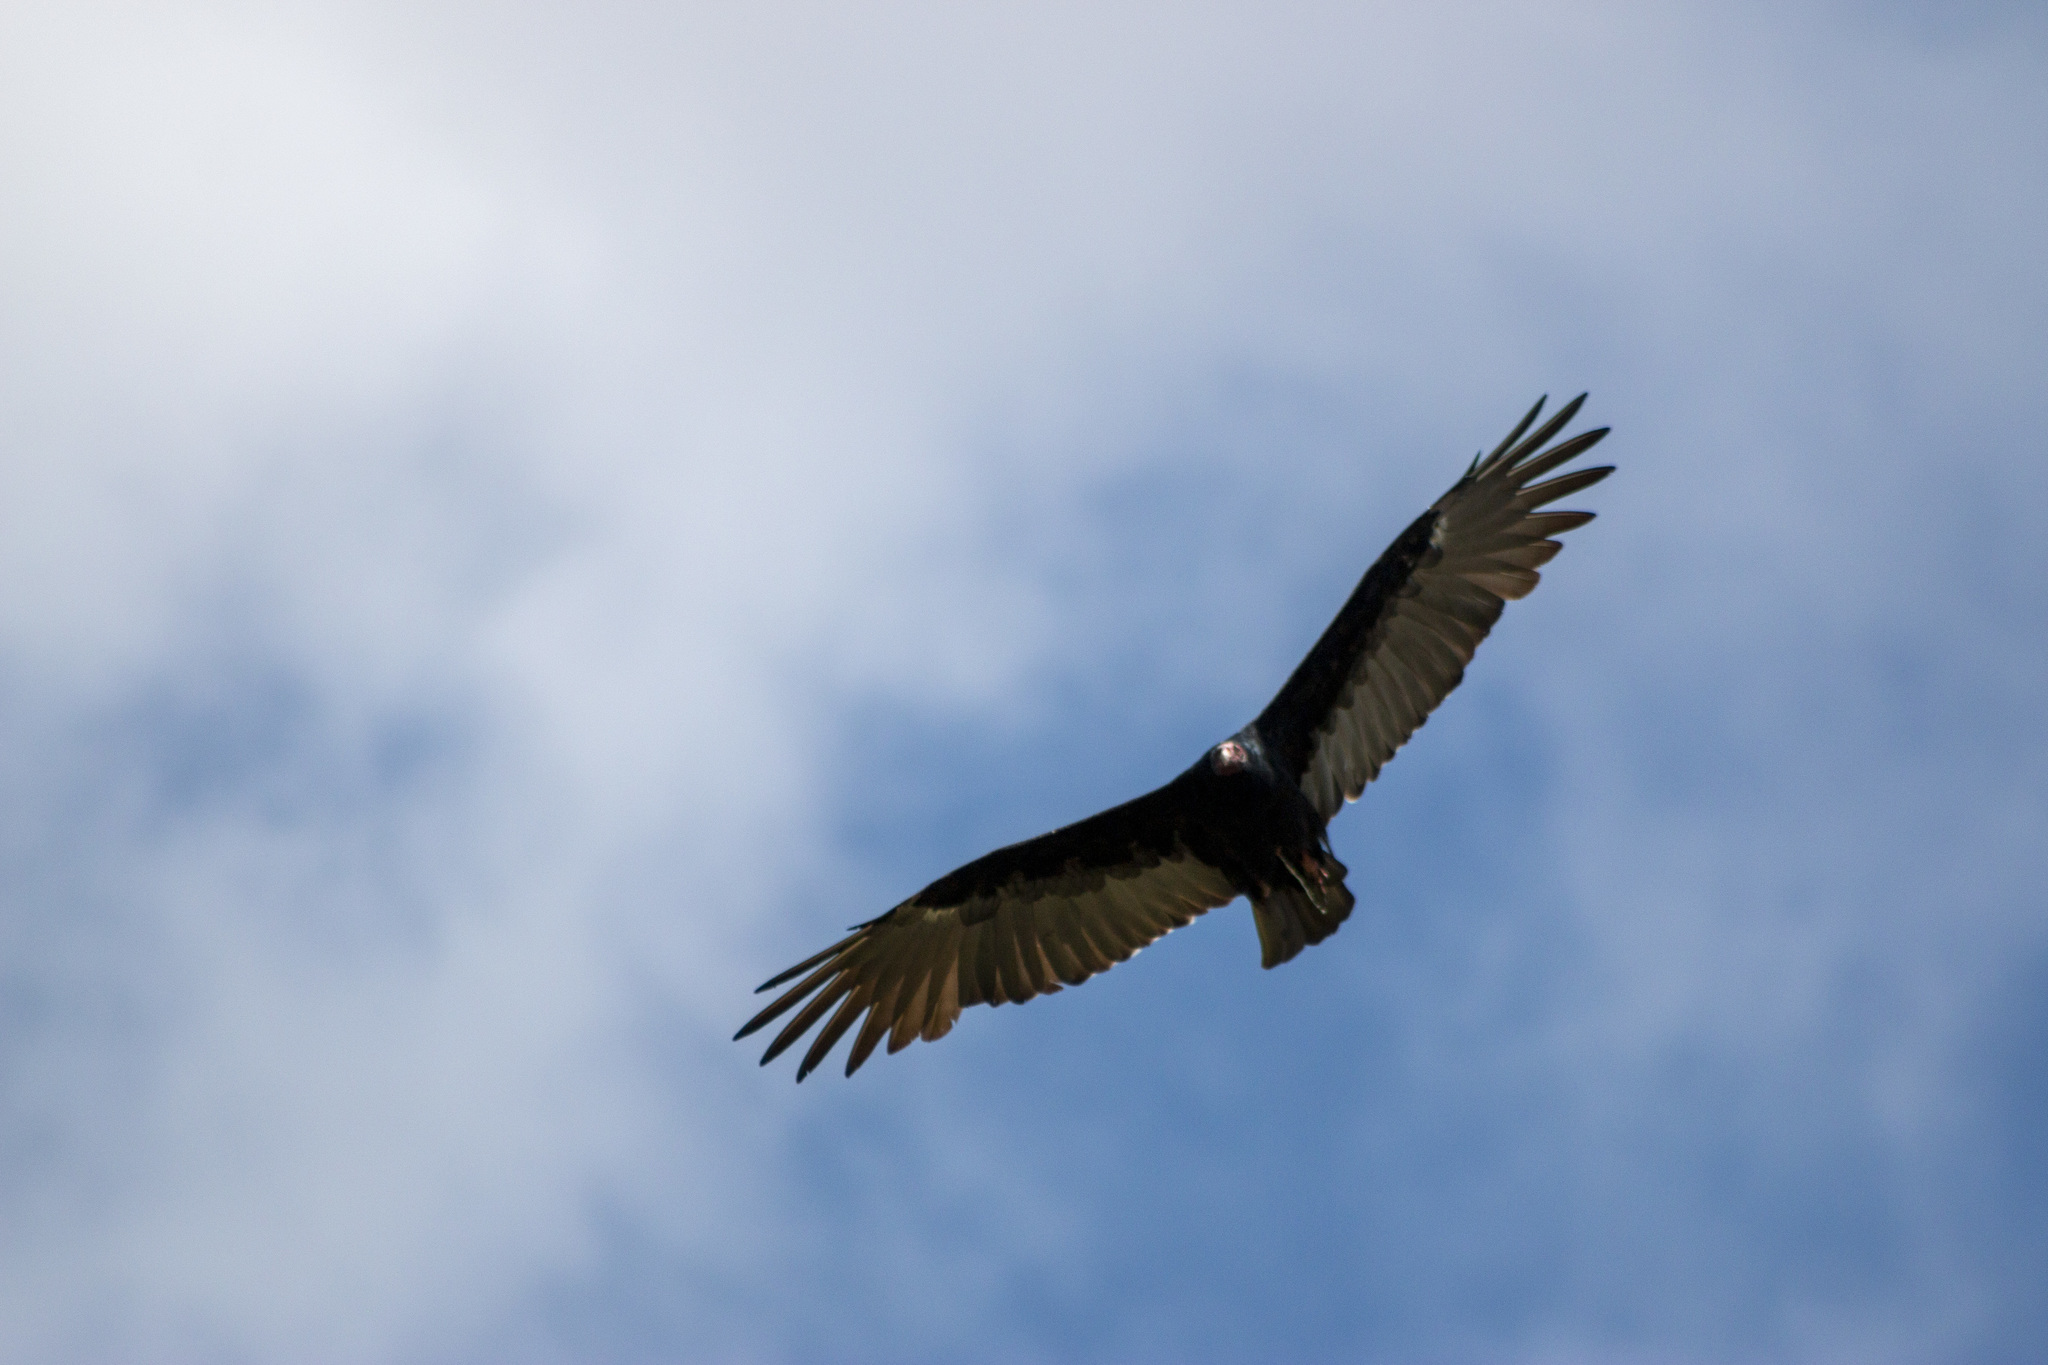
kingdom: Animalia
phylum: Chordata
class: Aves
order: Accipitriformes
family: Cathartidae
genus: Cathartes
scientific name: Cathartes aura
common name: Turkey vulture
